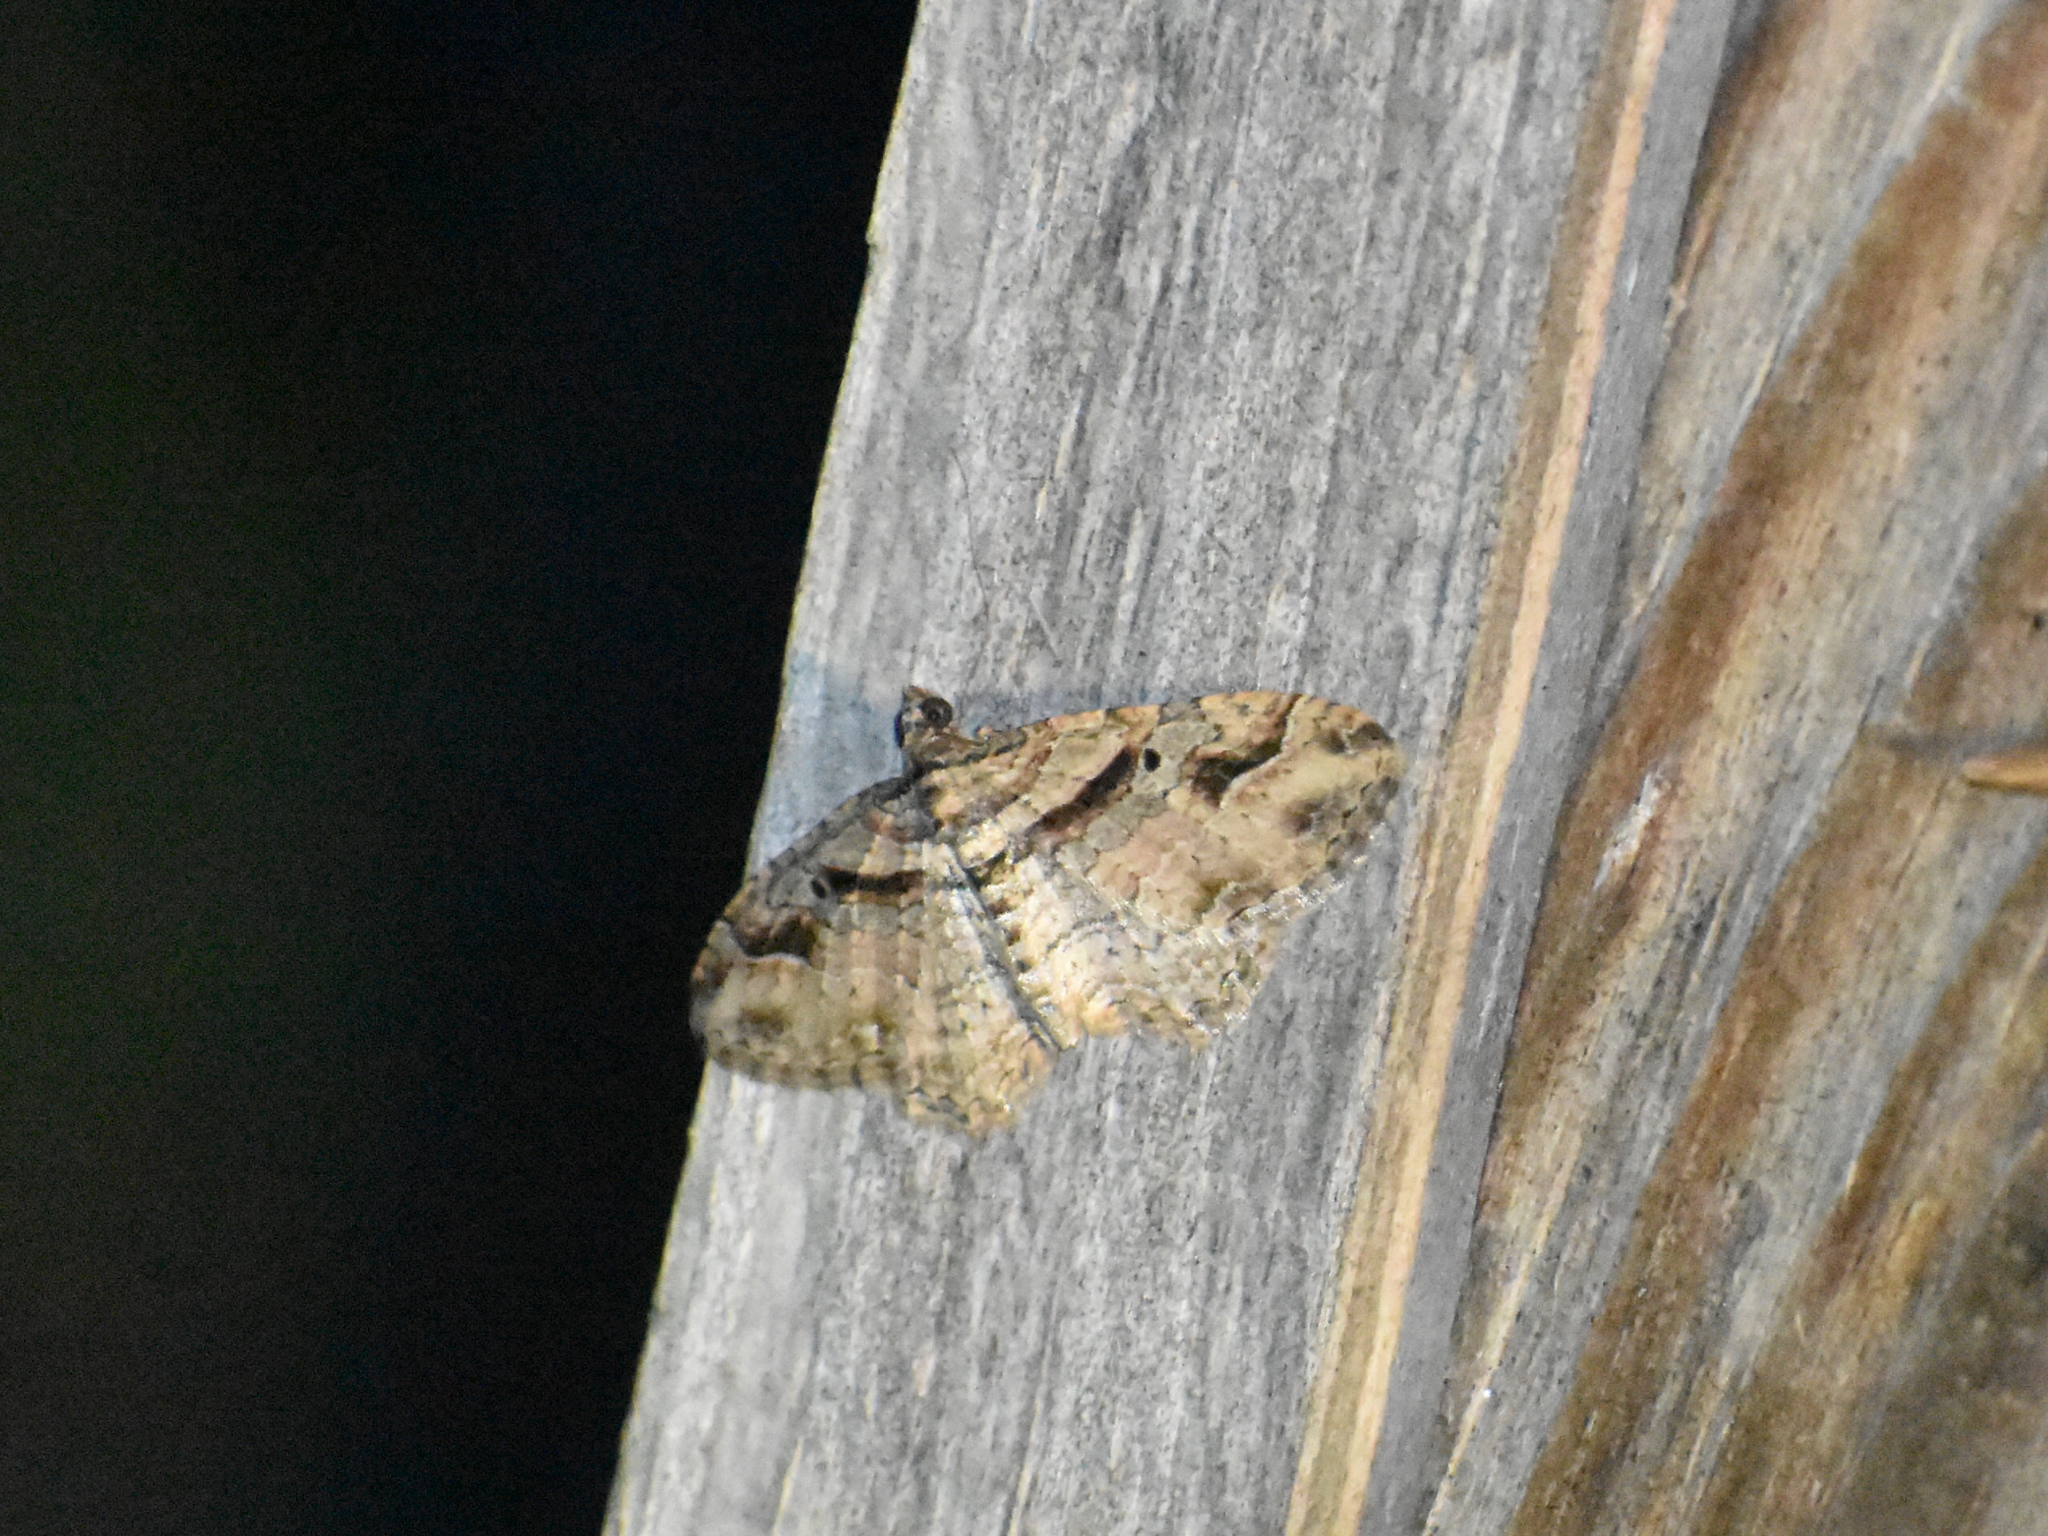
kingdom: Animalia
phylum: Arthropoda
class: Insecta
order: Lepidoptera
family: Geometridae
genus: Costaconvexa
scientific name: Costaconvexa centrostrigaria
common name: Bent-line carpet
